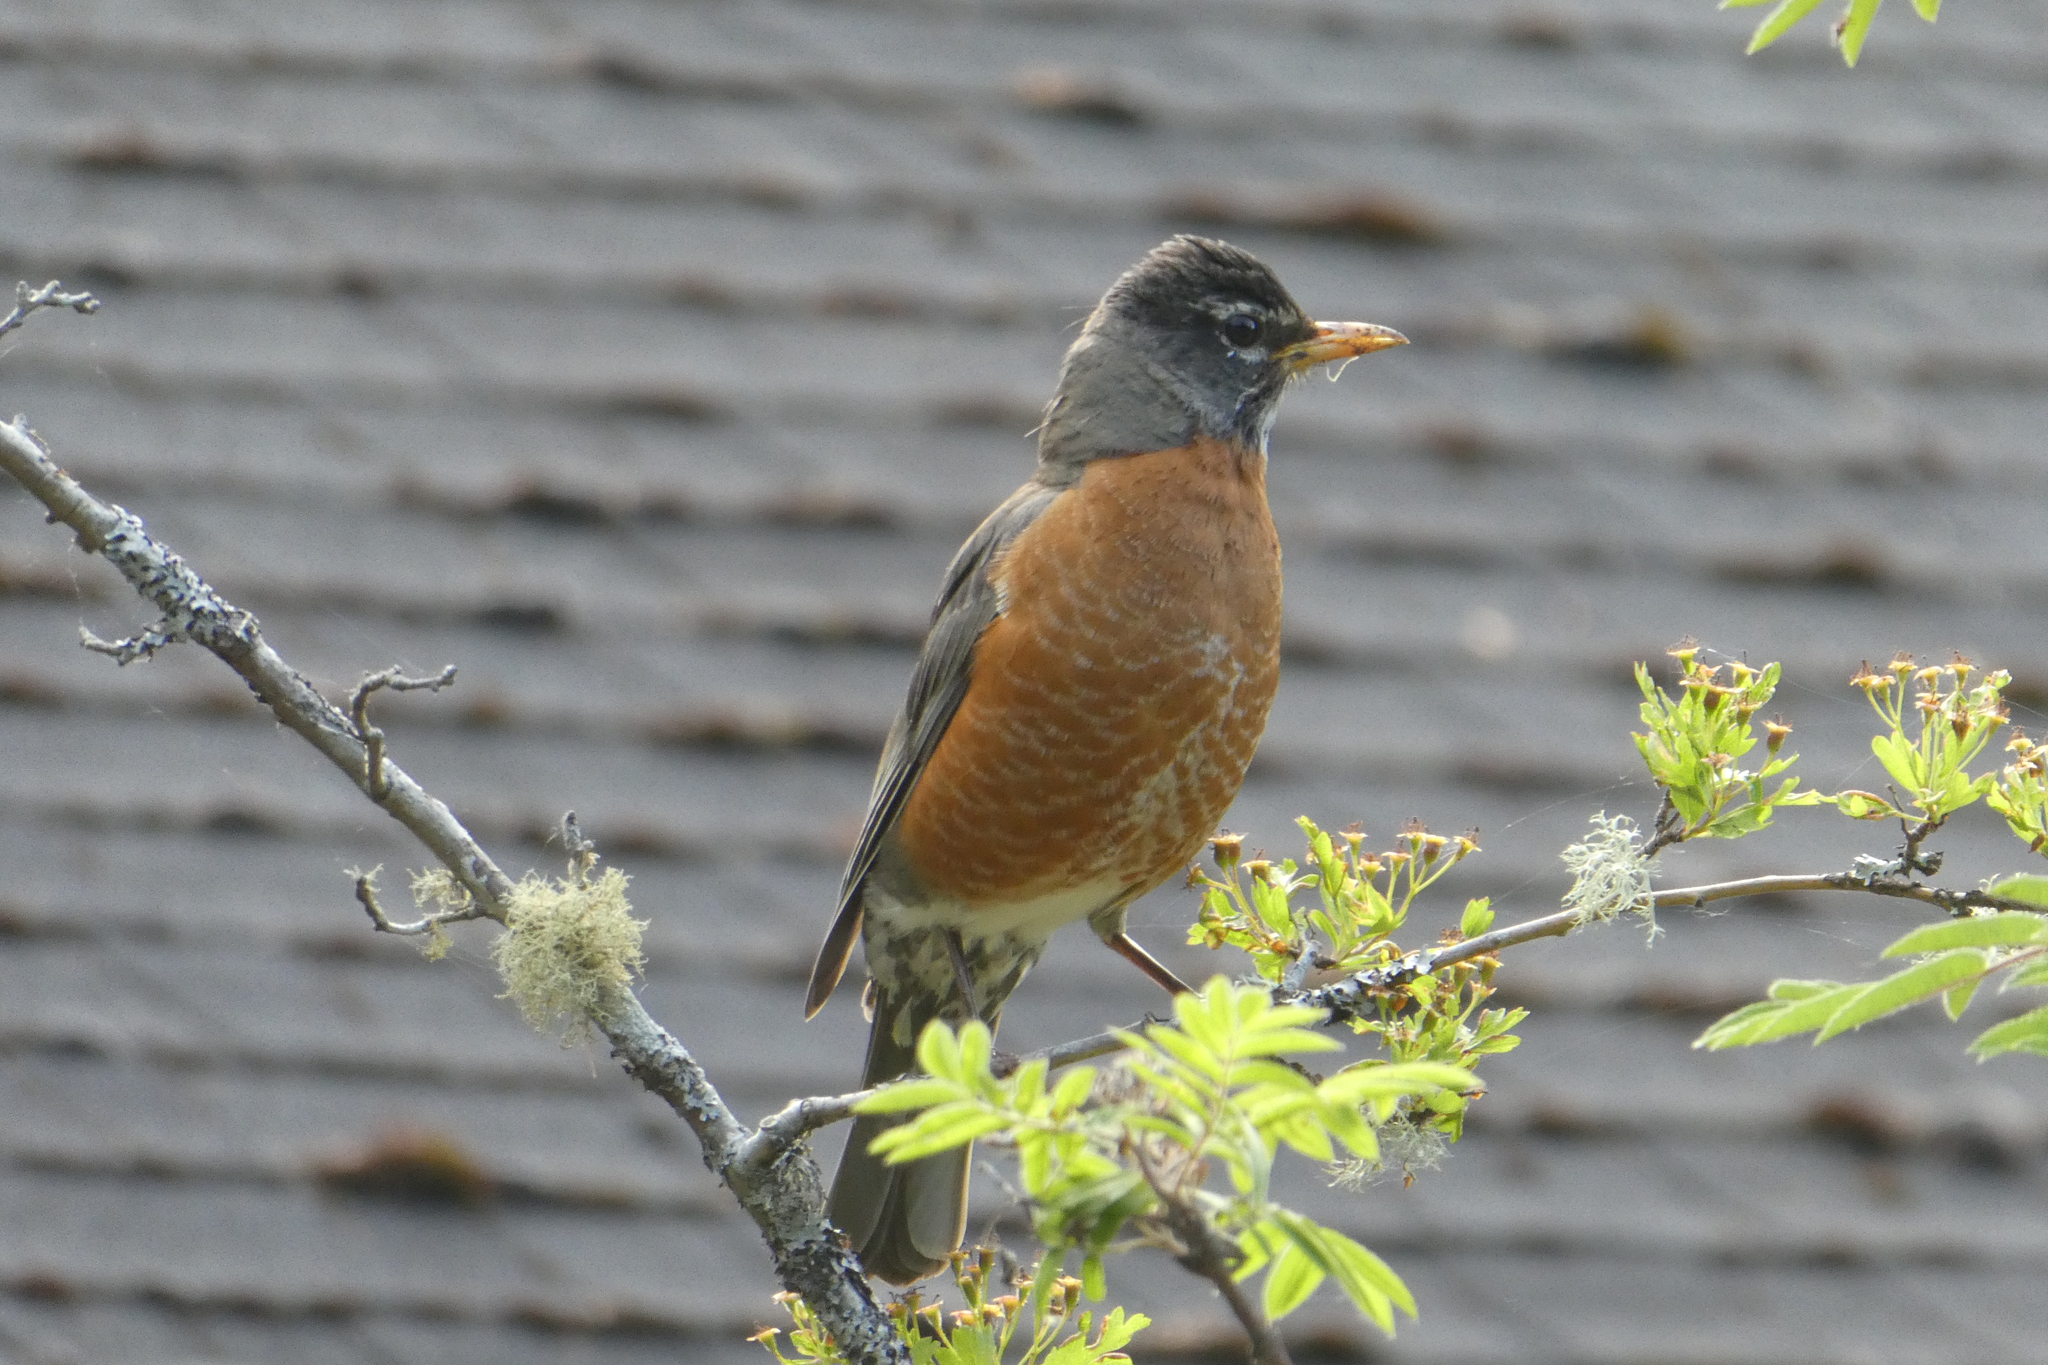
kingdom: Animalia
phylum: Chordata
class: Aves
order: Passeriformes
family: Turdidae
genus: Turdus
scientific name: Turdus migratorius
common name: American robin
